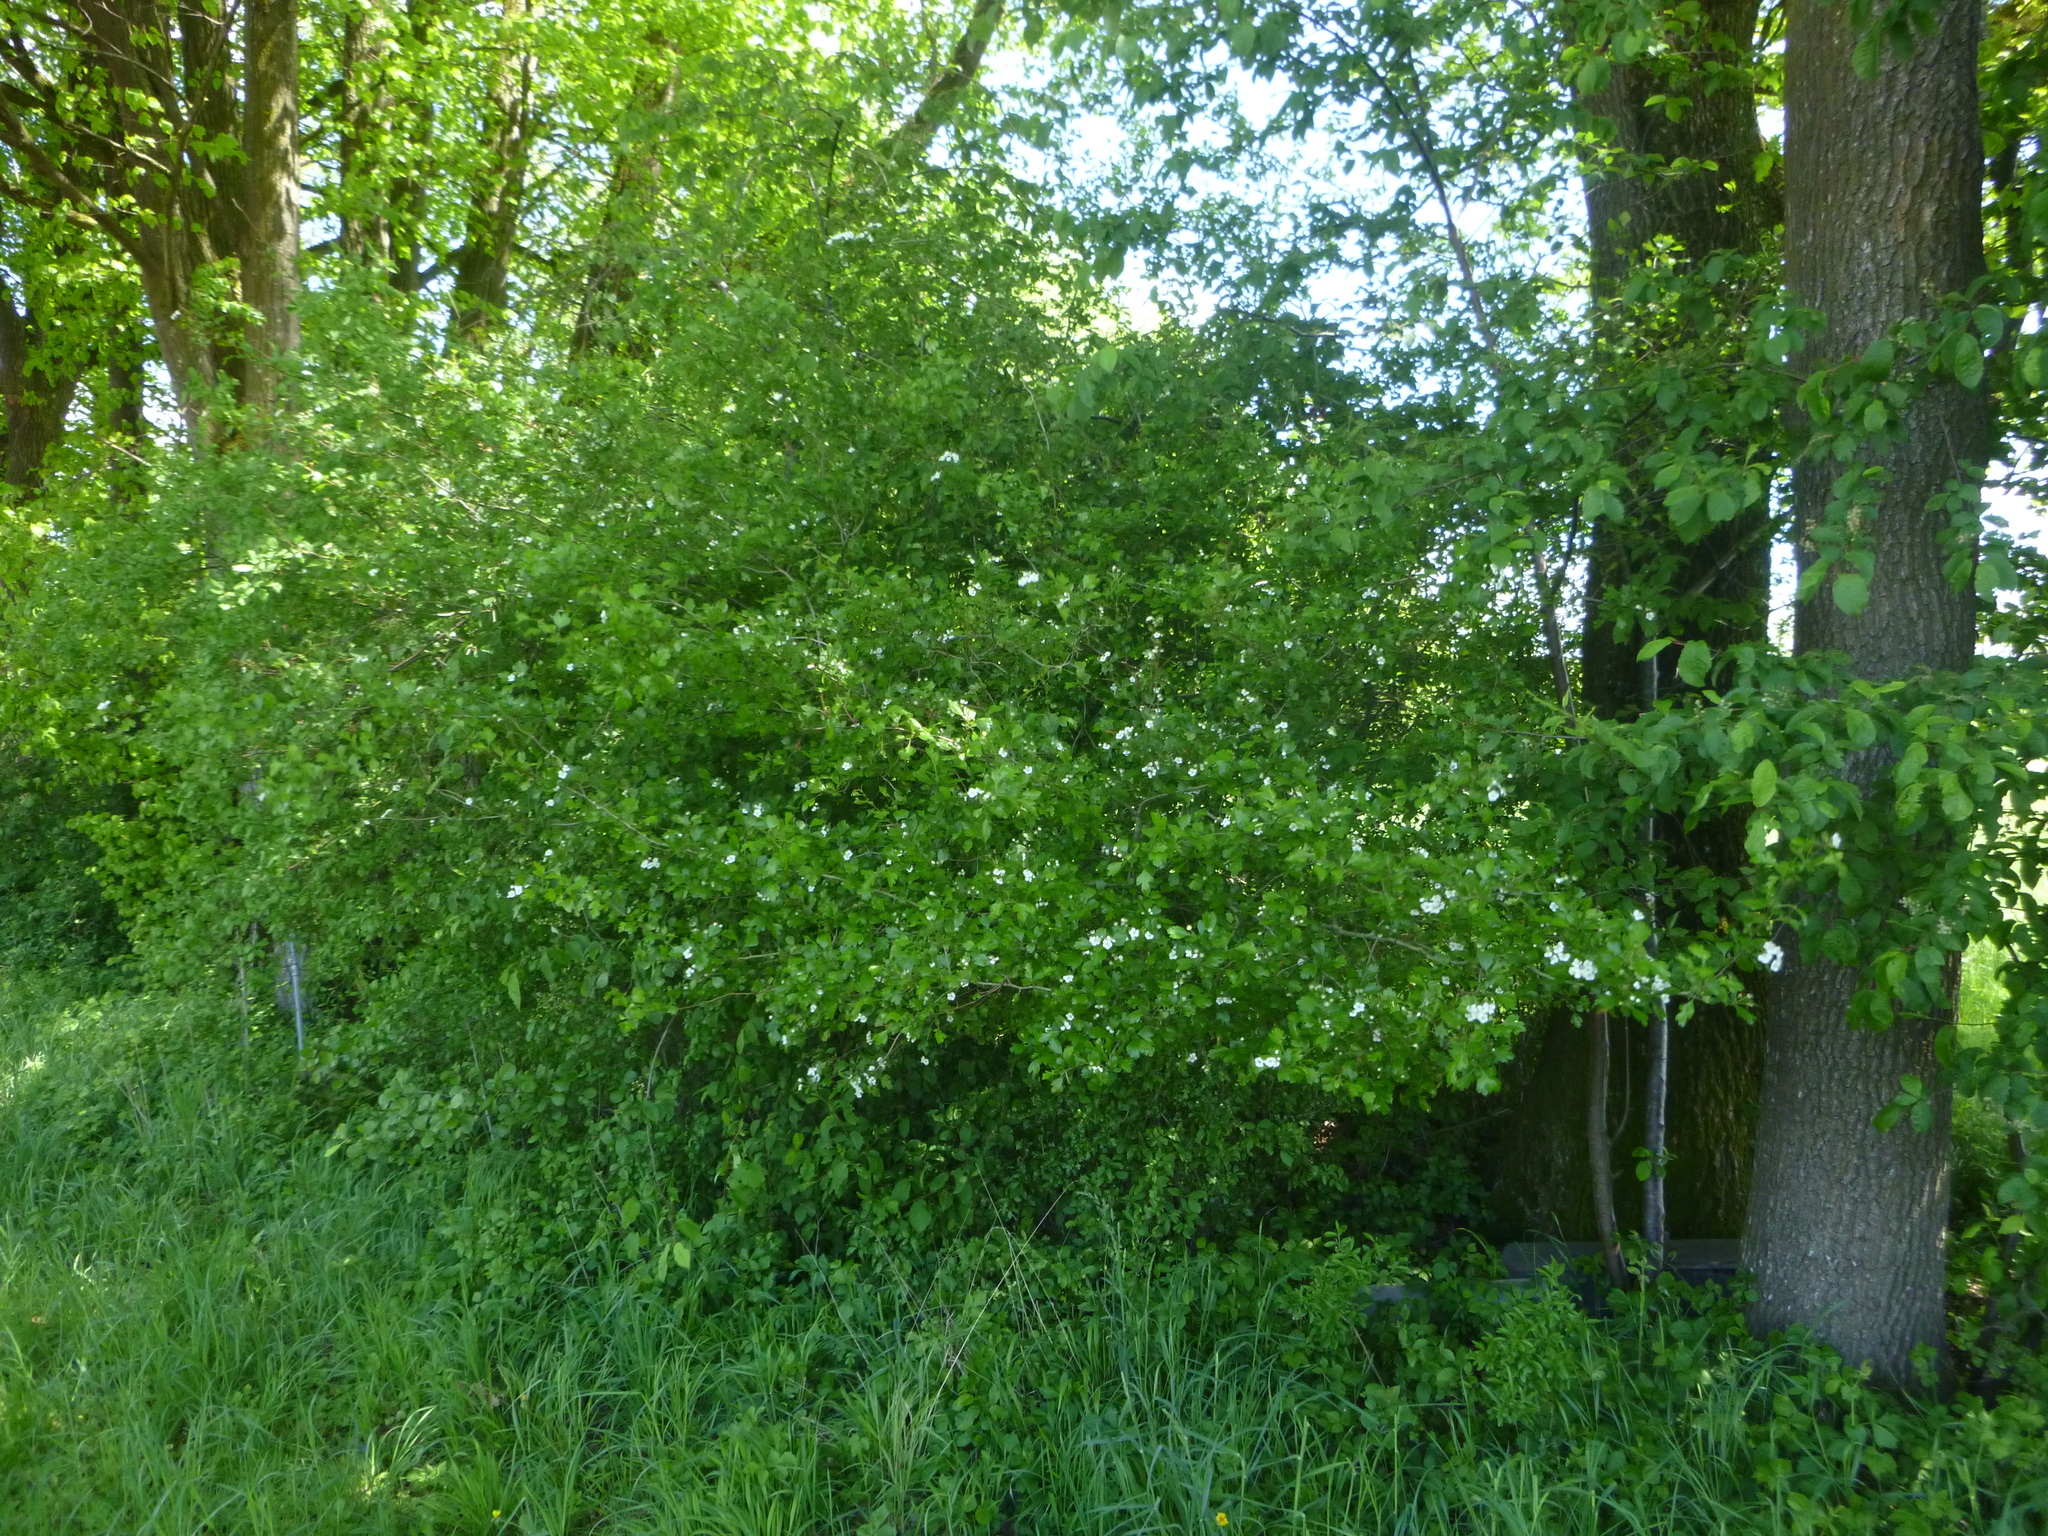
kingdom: Plantae
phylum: Tracheophyta
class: Magnoliopsida
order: Rosales
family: Rosaceae
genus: Crataegus
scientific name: Crataegus laevigata
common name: Midland hawthorn
